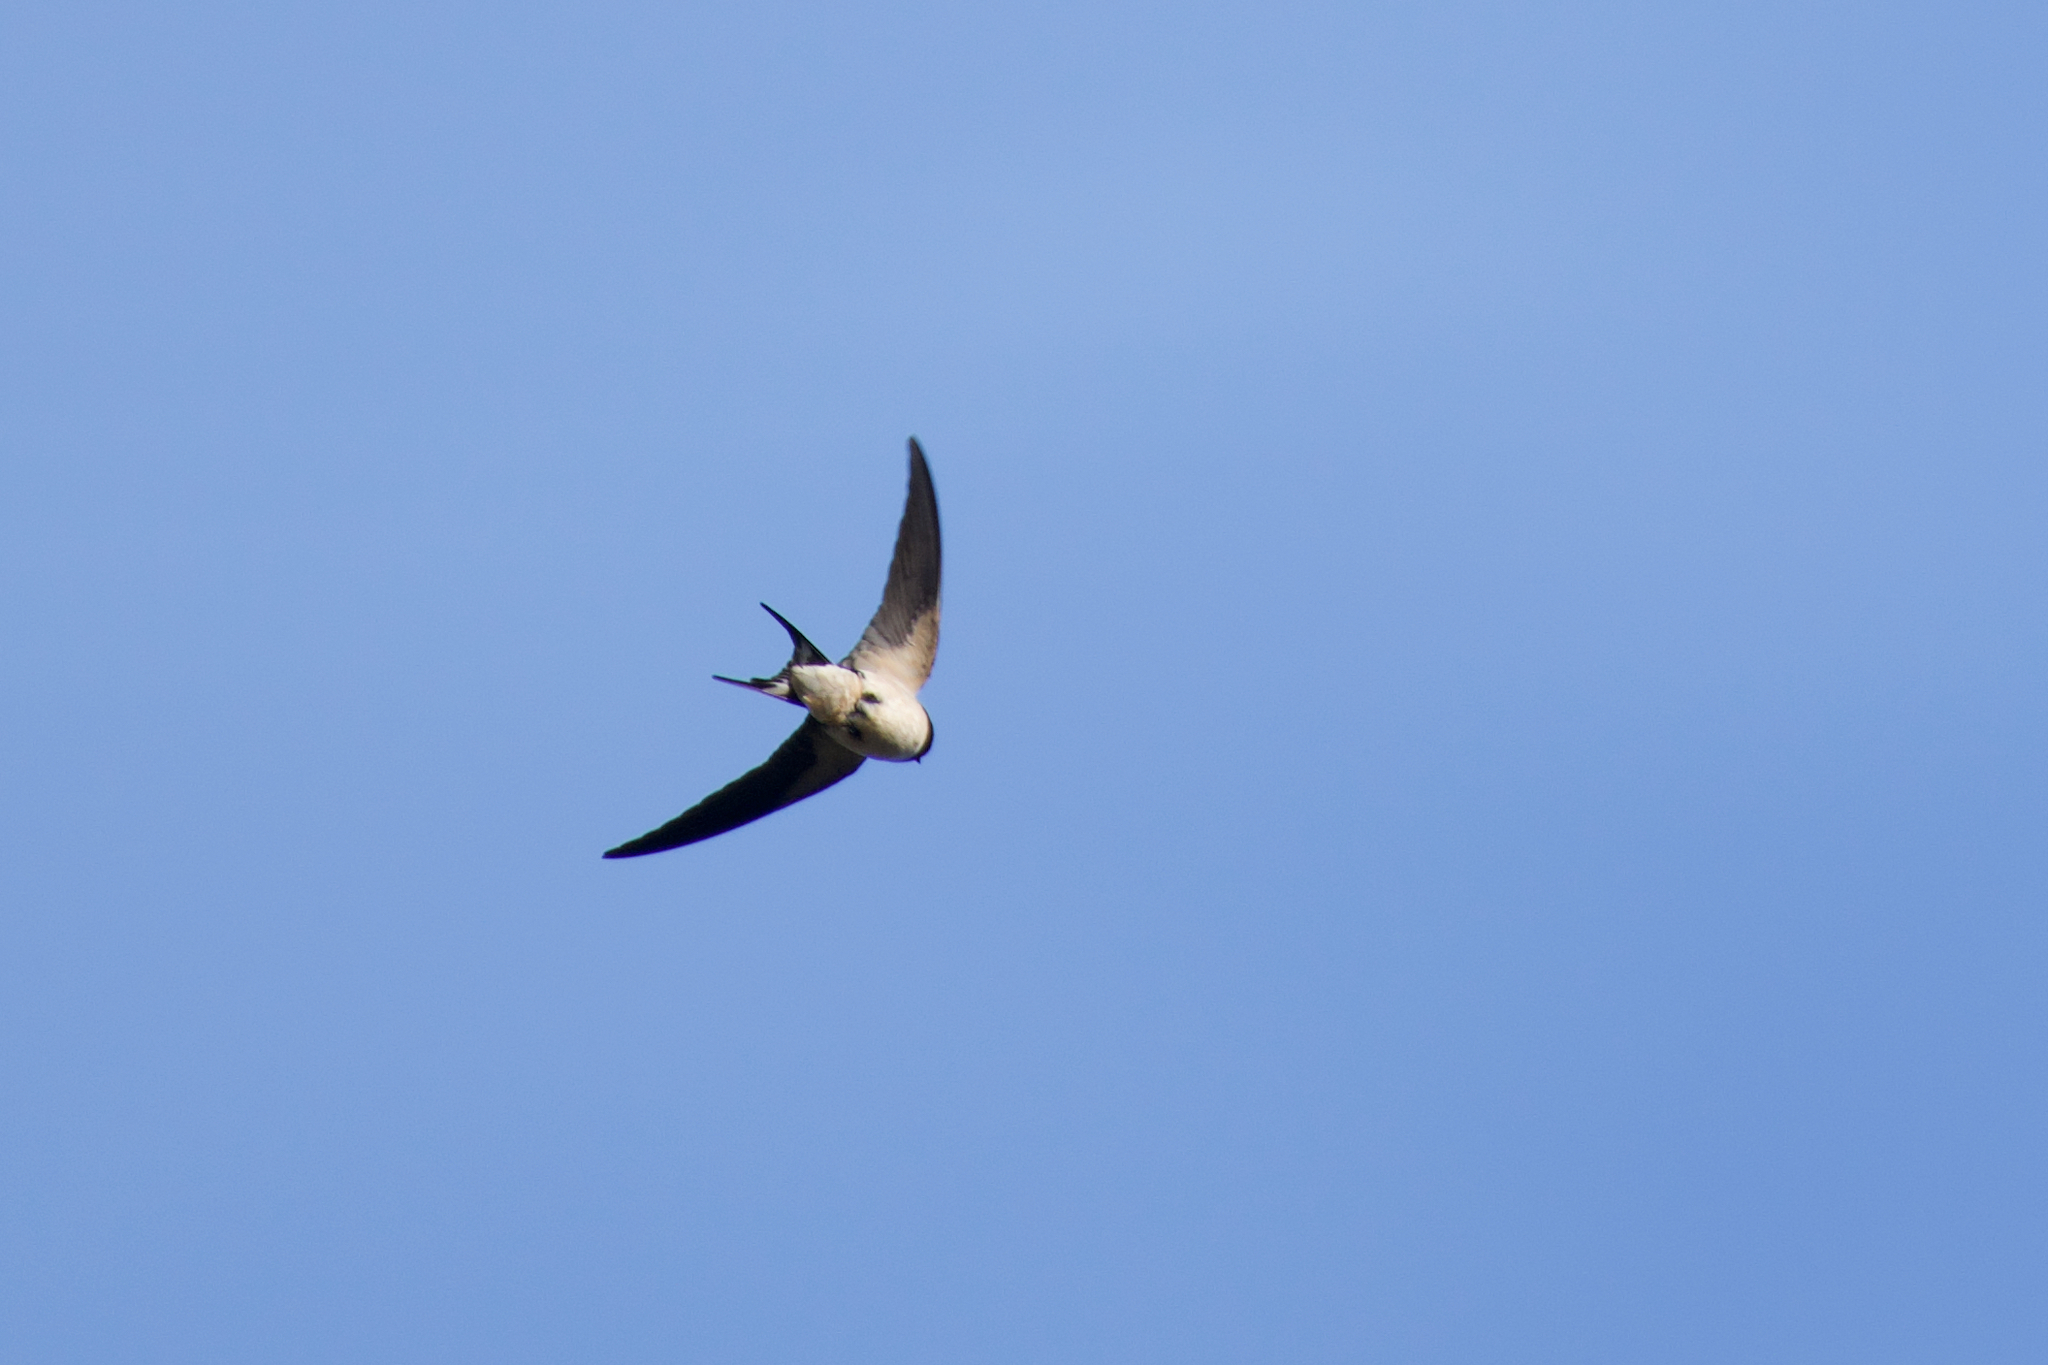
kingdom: Animalia
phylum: Chordata
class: Aves
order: Passeriformes
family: Hirundinidae
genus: Hirundo
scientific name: Hirundo rustica
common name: Barn swallow
